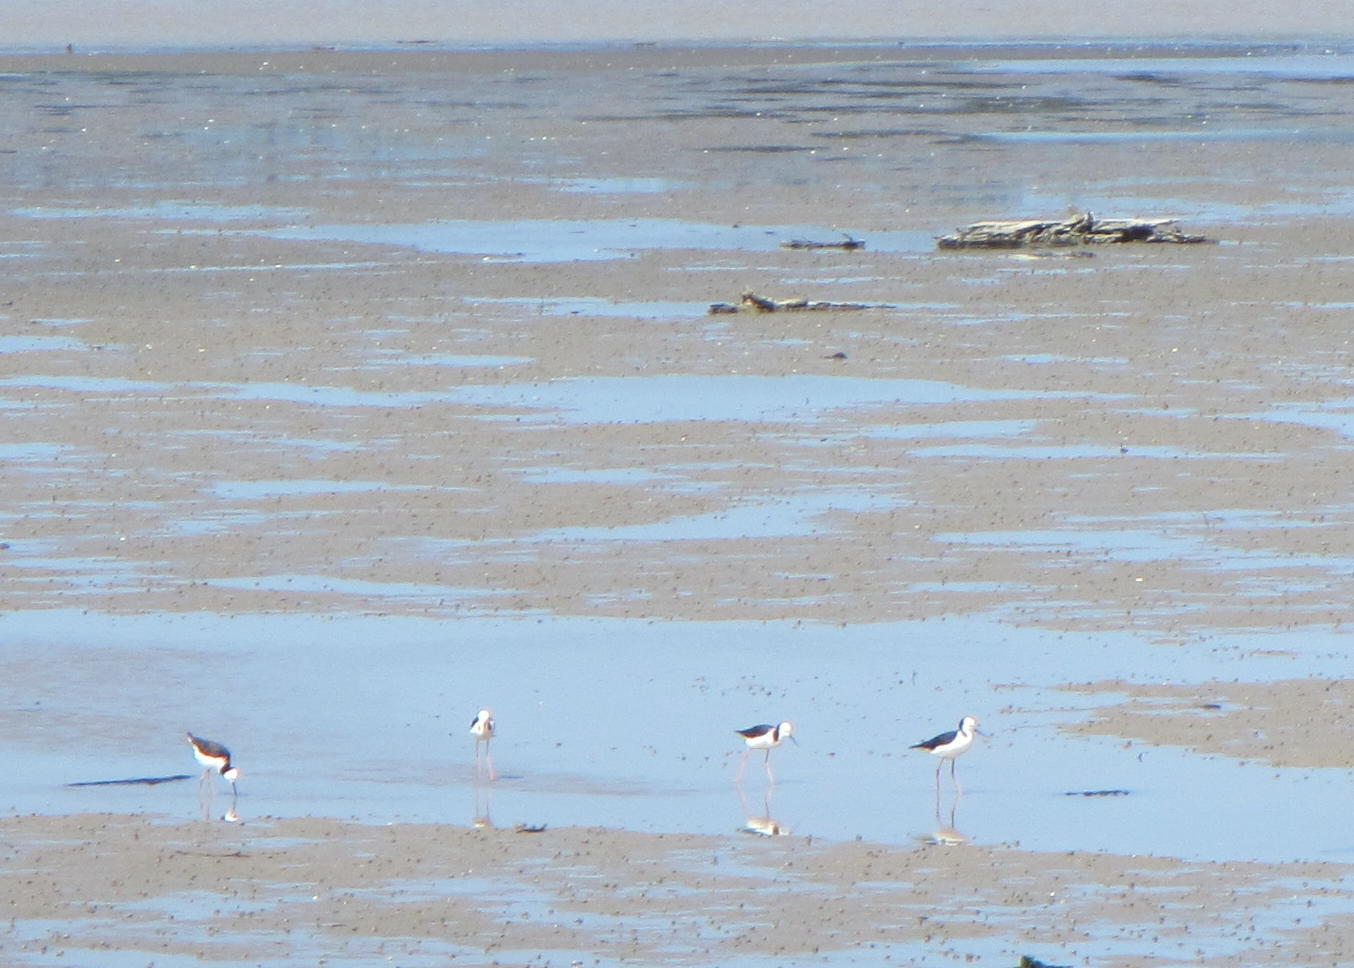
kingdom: Animalia
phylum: Chordata
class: Aves
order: Charadriiformes
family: Recurvirostridae
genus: Himantopus
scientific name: Himantopus leucocephalus
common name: White-headed stilt
